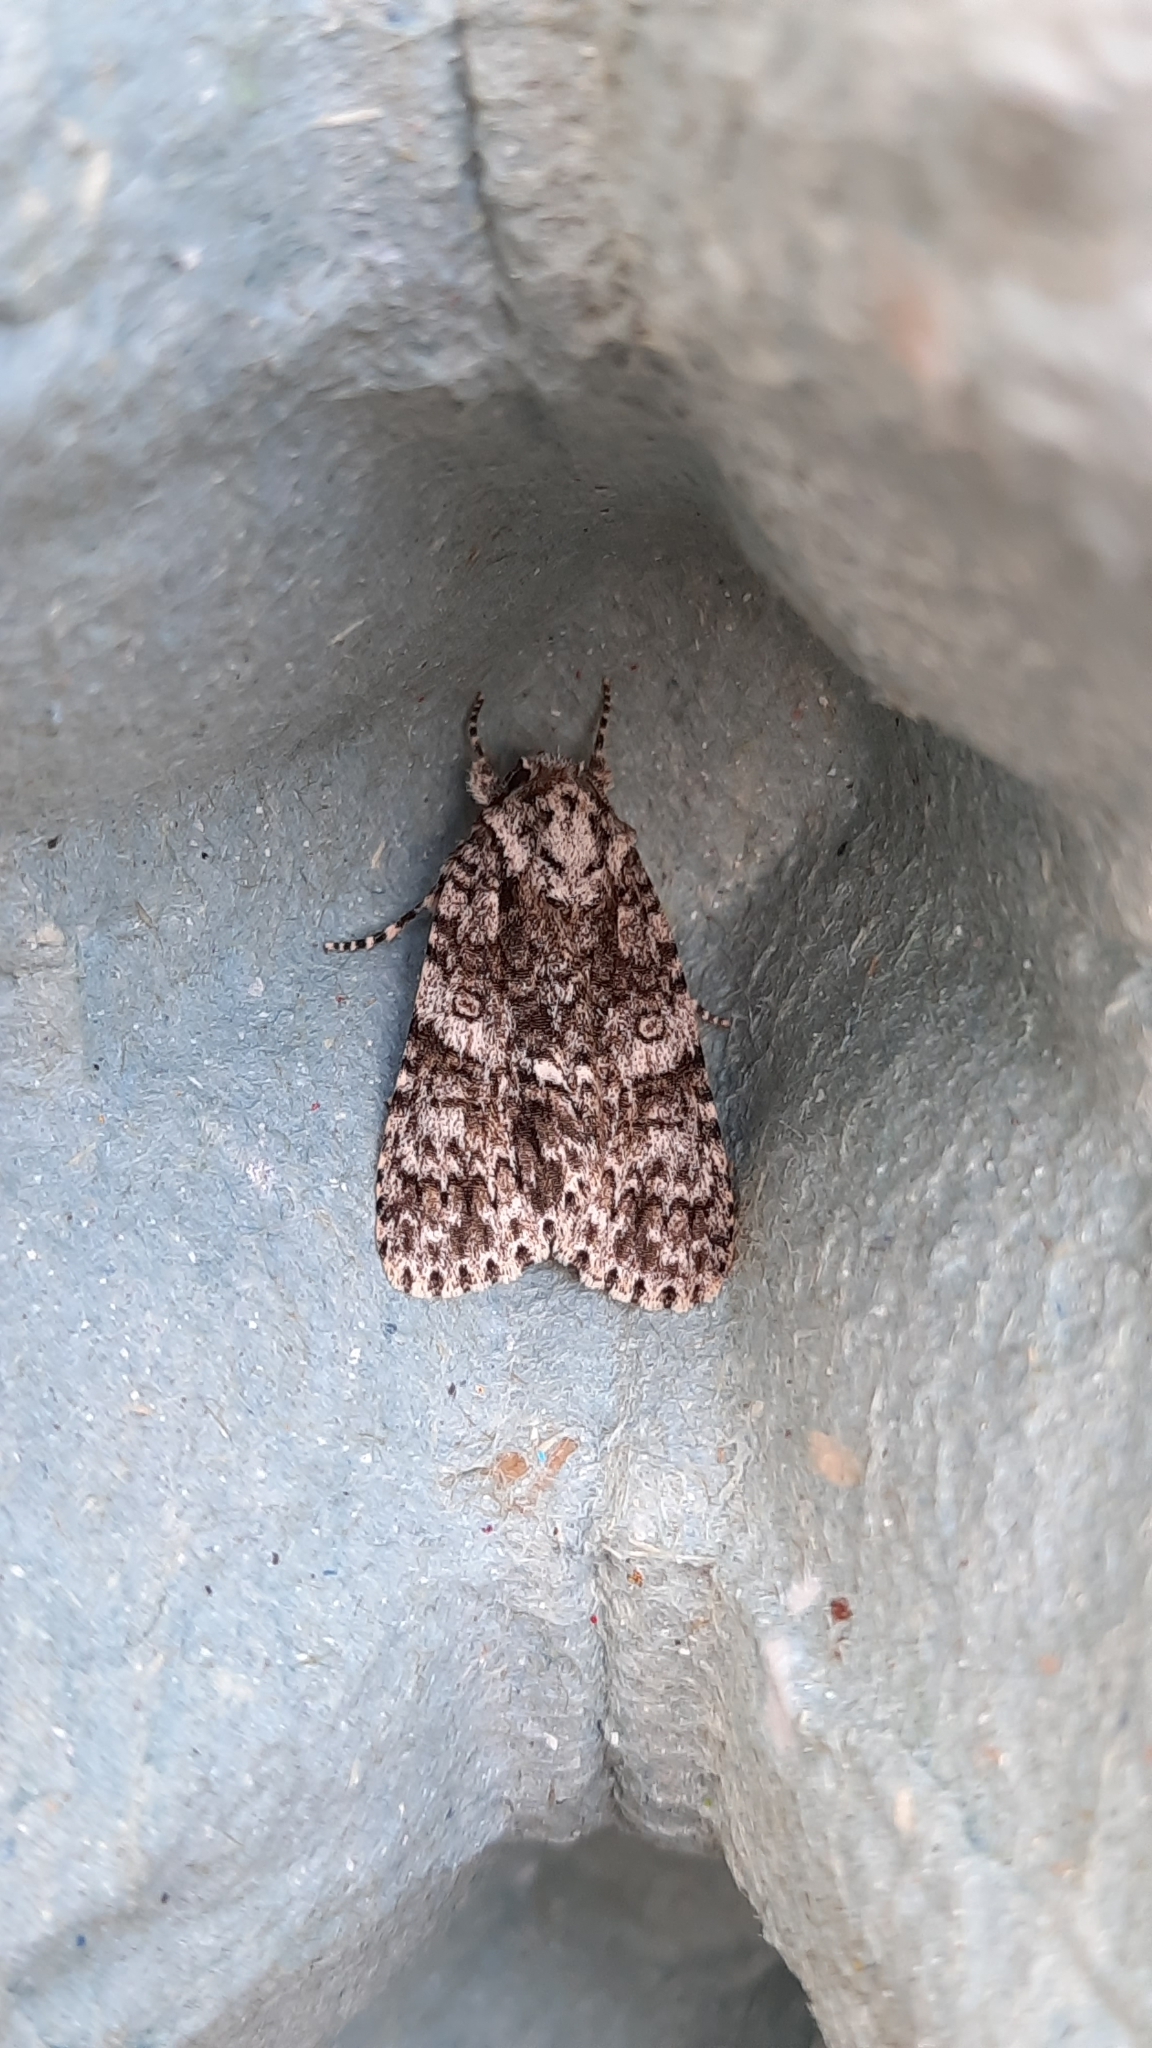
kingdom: Animalia
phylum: Arthropoda
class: Insecta
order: Lepidoptera
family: Noctuidae
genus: Acronicta
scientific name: Acronicta rumicis
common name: Knot grass
